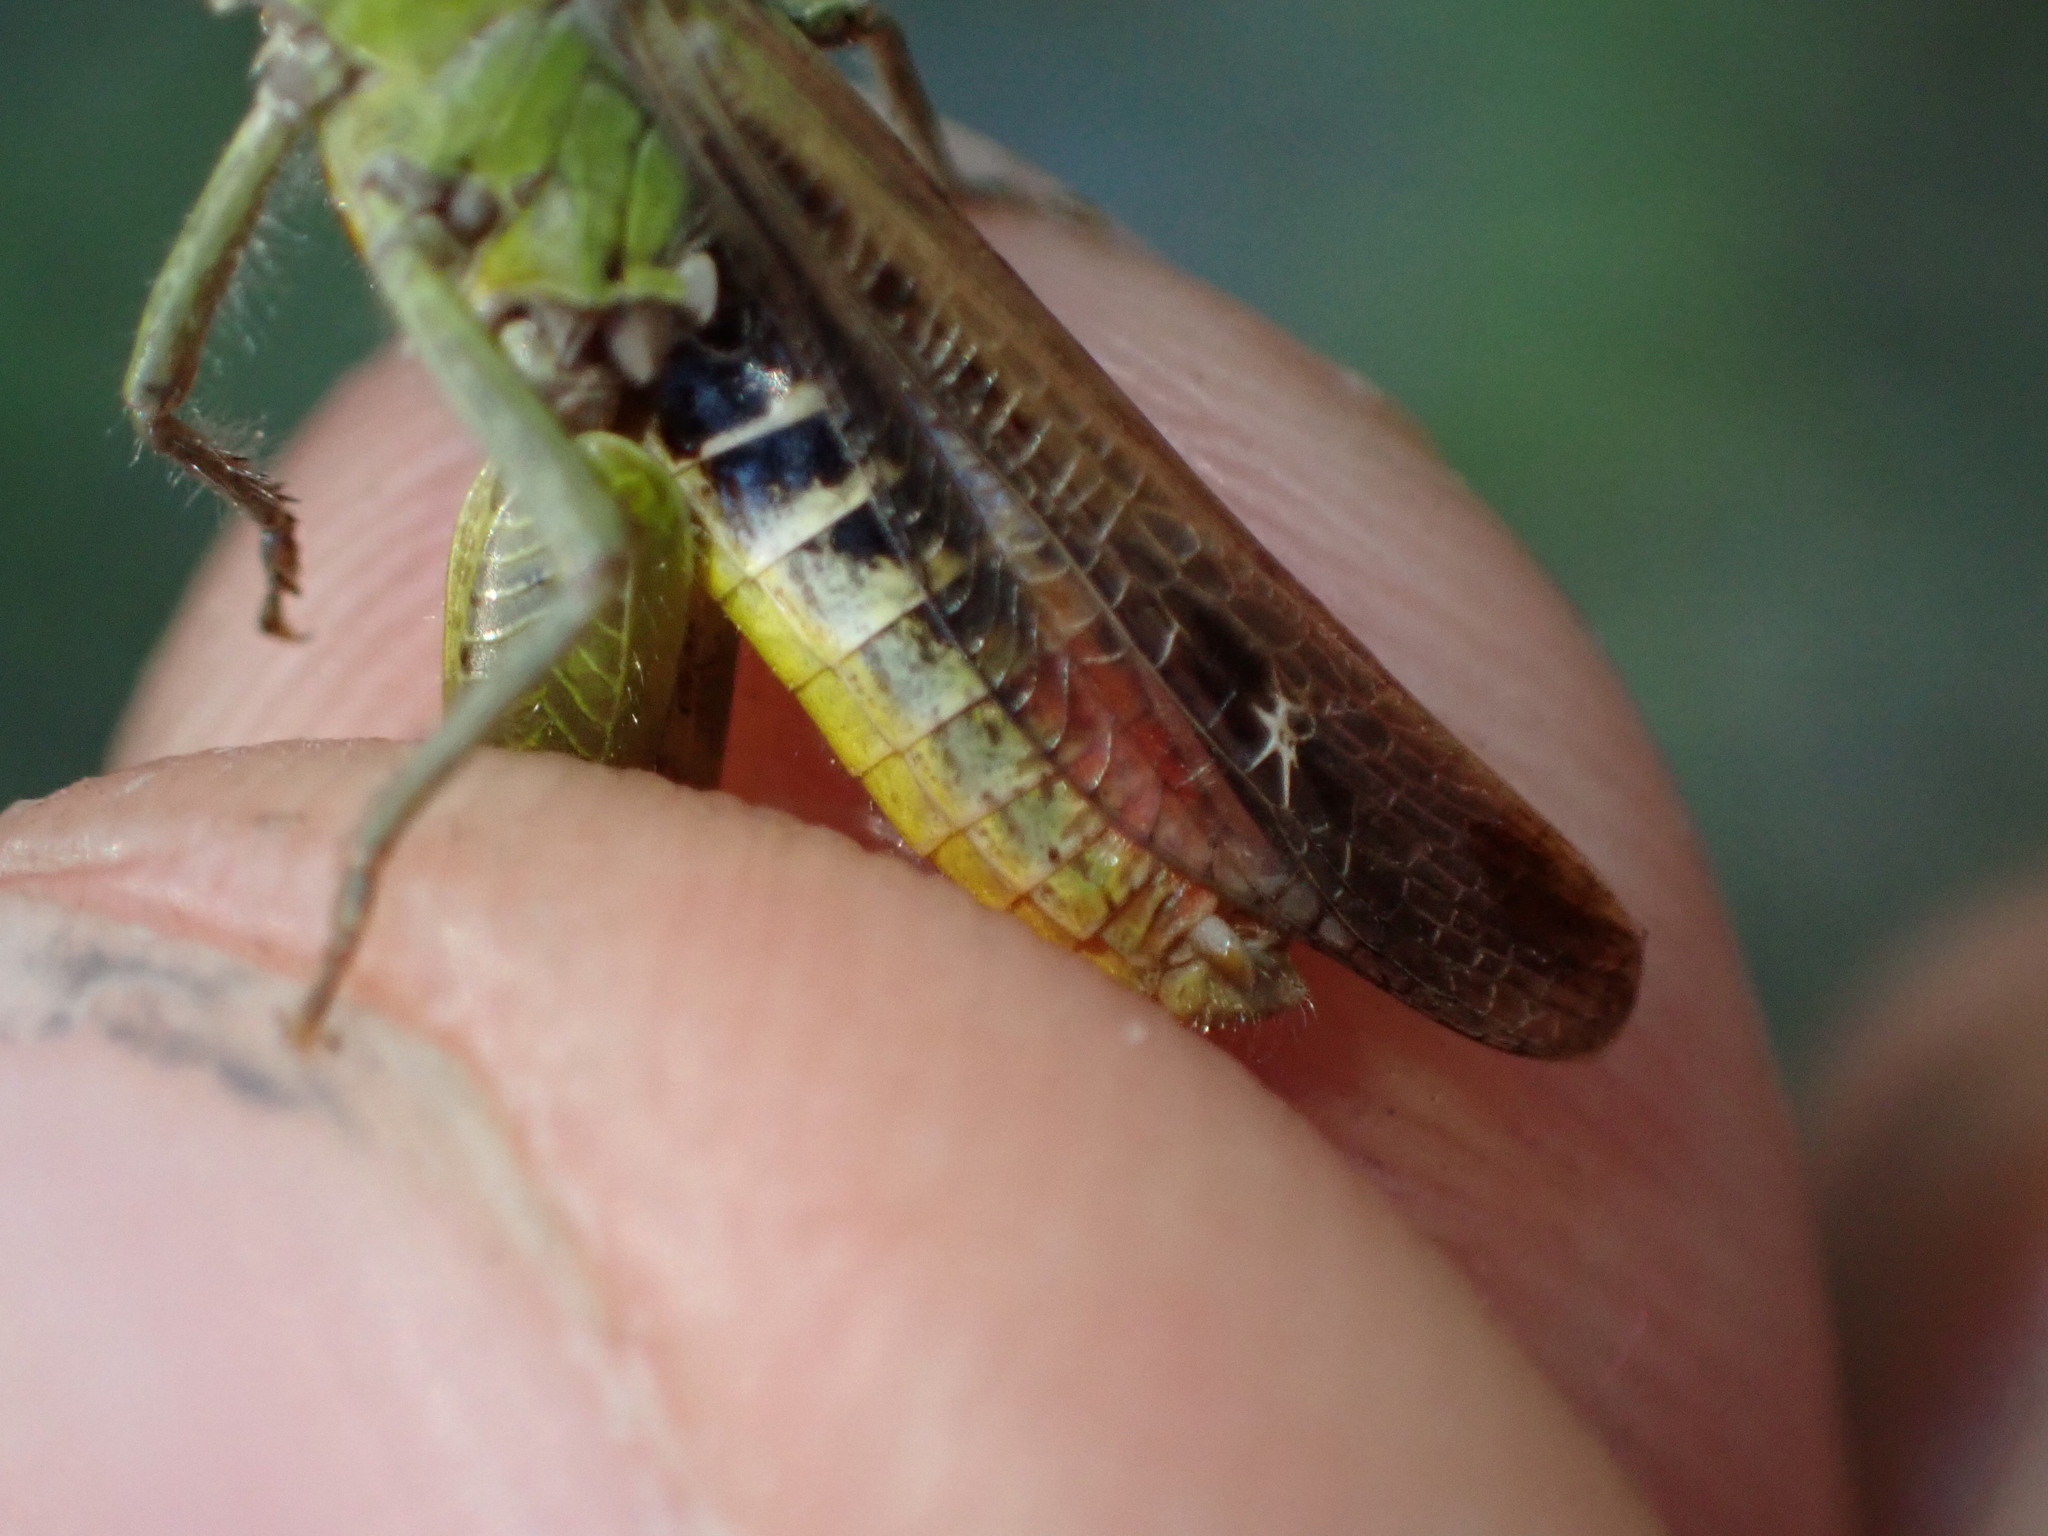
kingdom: Animalia
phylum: Arthropoda
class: Insecta
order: Orthoptera
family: Acrididae
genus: Chorthippus
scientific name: Chorthippus biguttulus
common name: Bow-winged grasshopper
